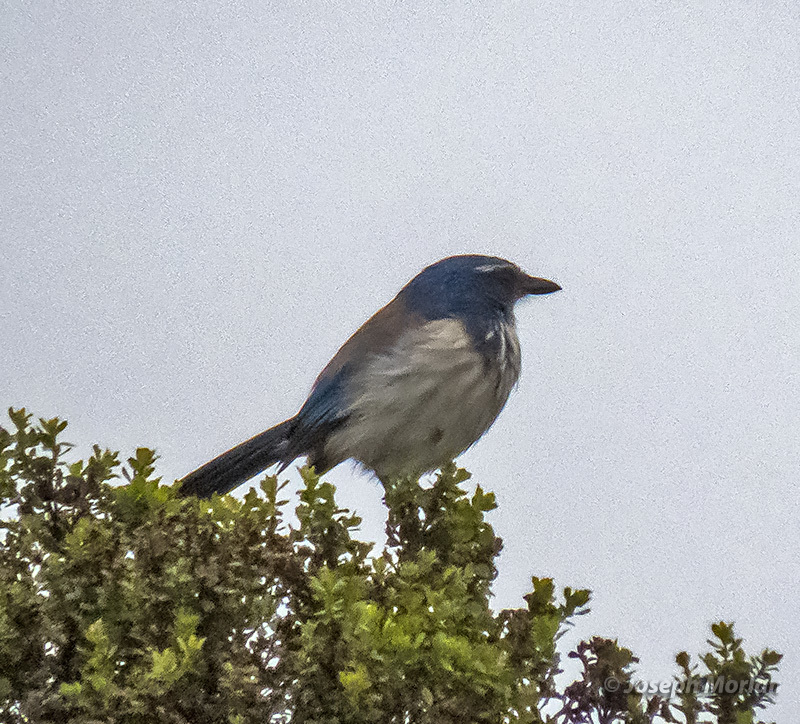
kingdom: Animalia
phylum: Chordata
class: Aves
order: Passeriformes
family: Corvidae
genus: Aphelocoma
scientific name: Aphelocoma californica
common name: California scrub-jay
